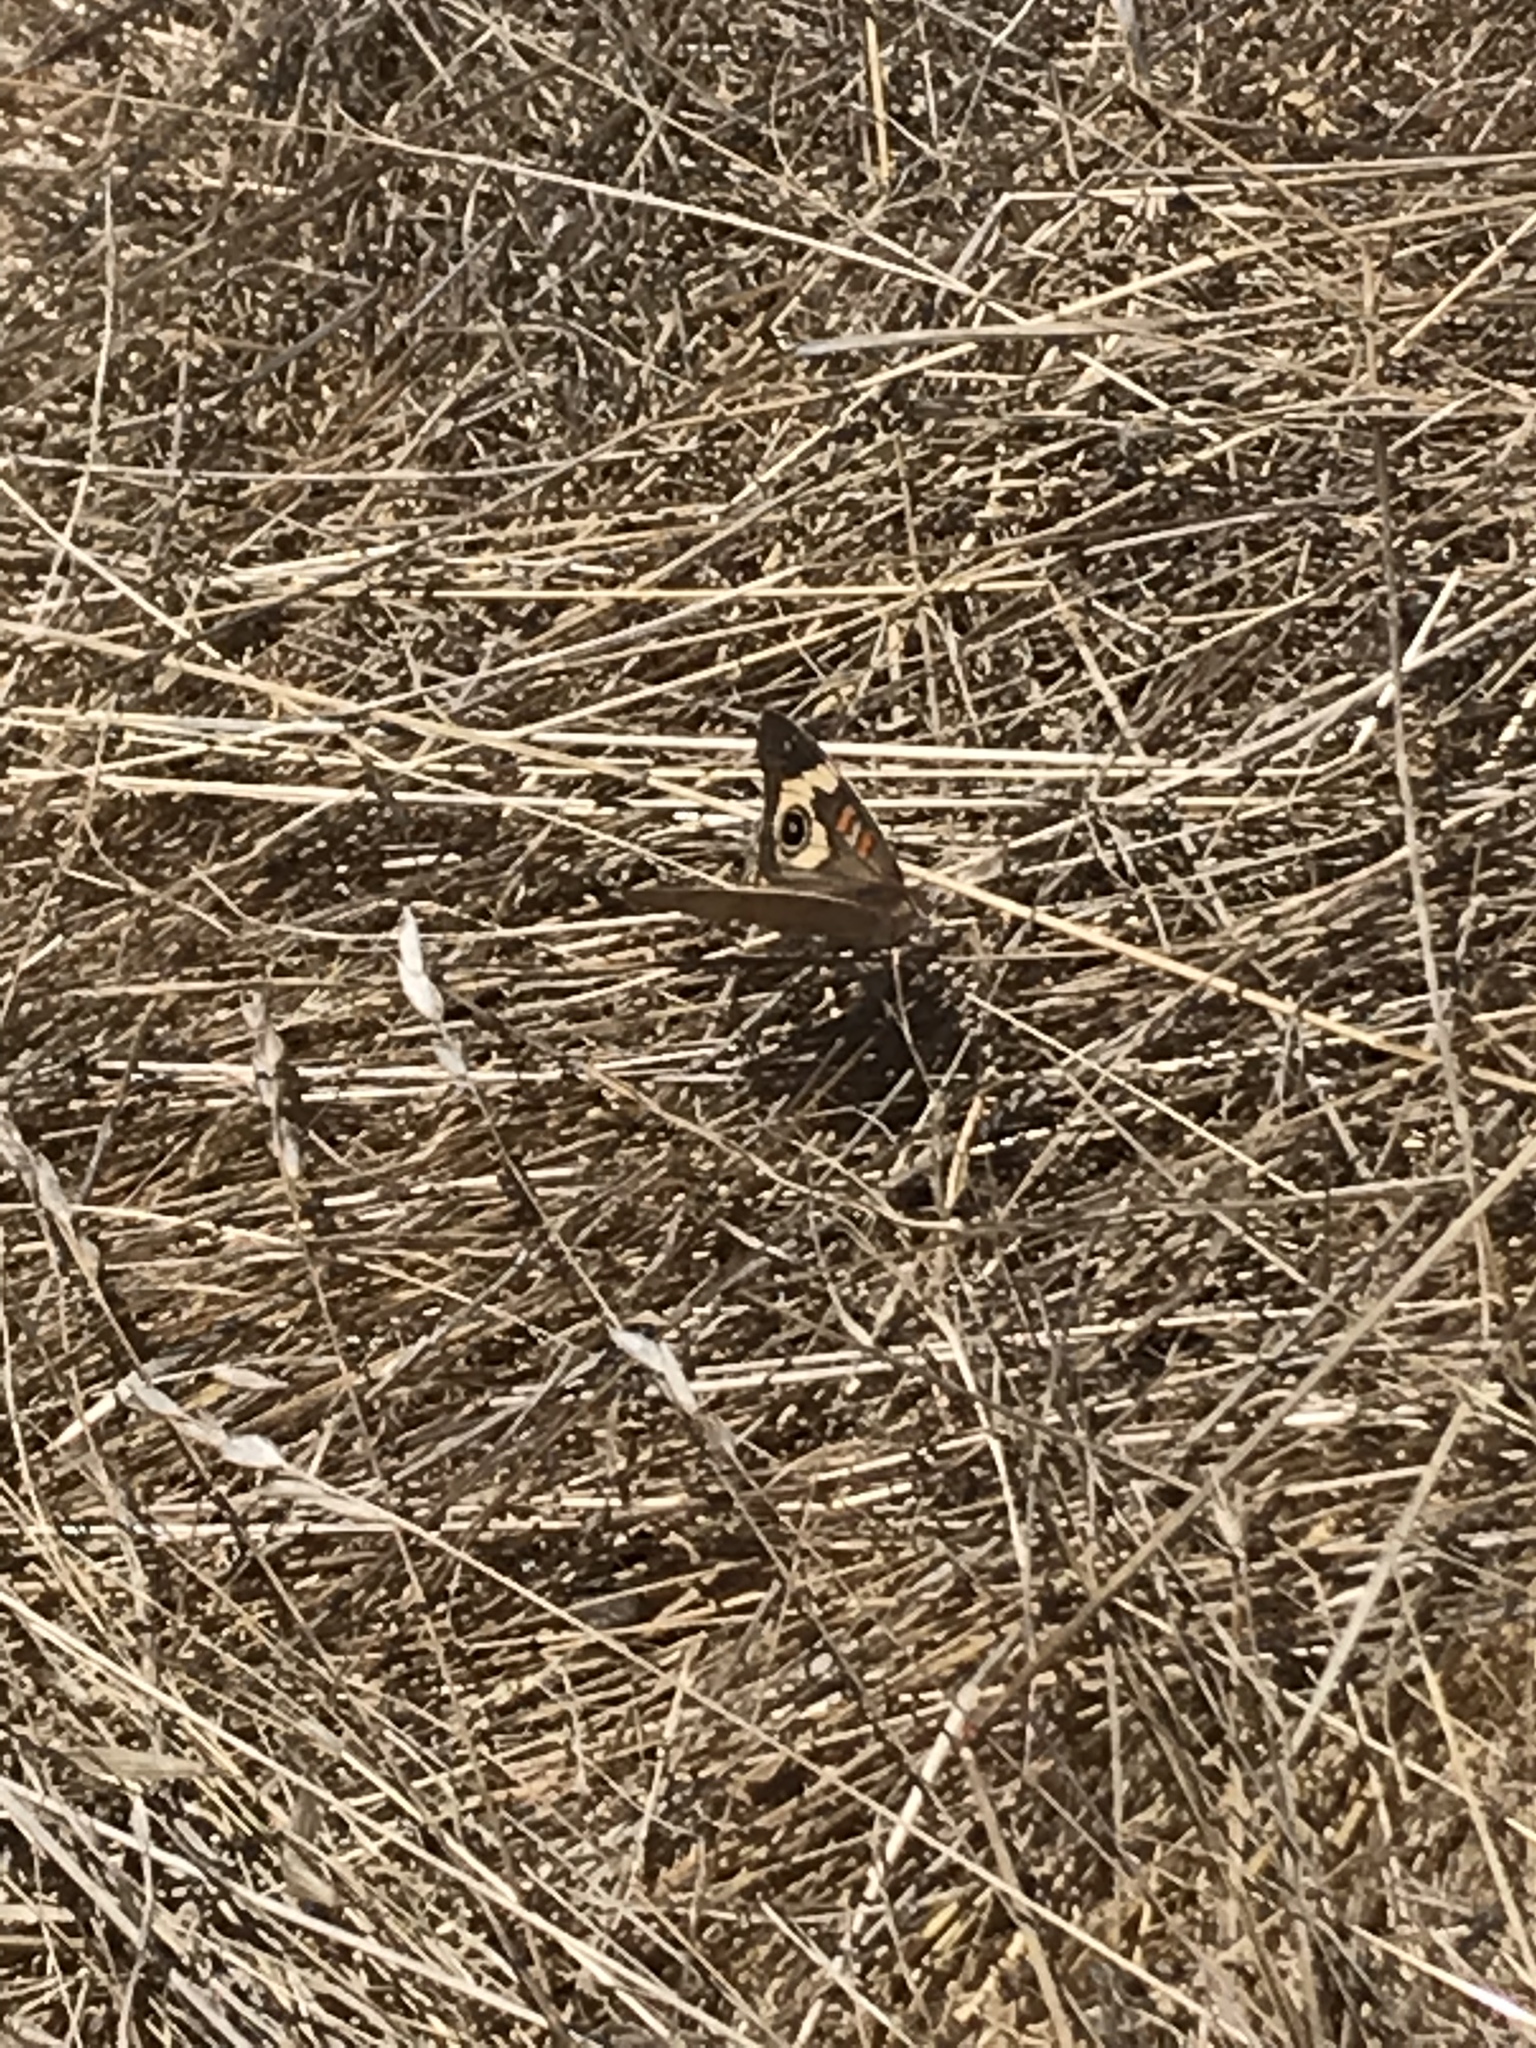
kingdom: Animalia
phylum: Arthropoda
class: Insecta
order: Lepidoptera
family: Nymphalidae
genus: Junonia
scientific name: Junonia grisea
